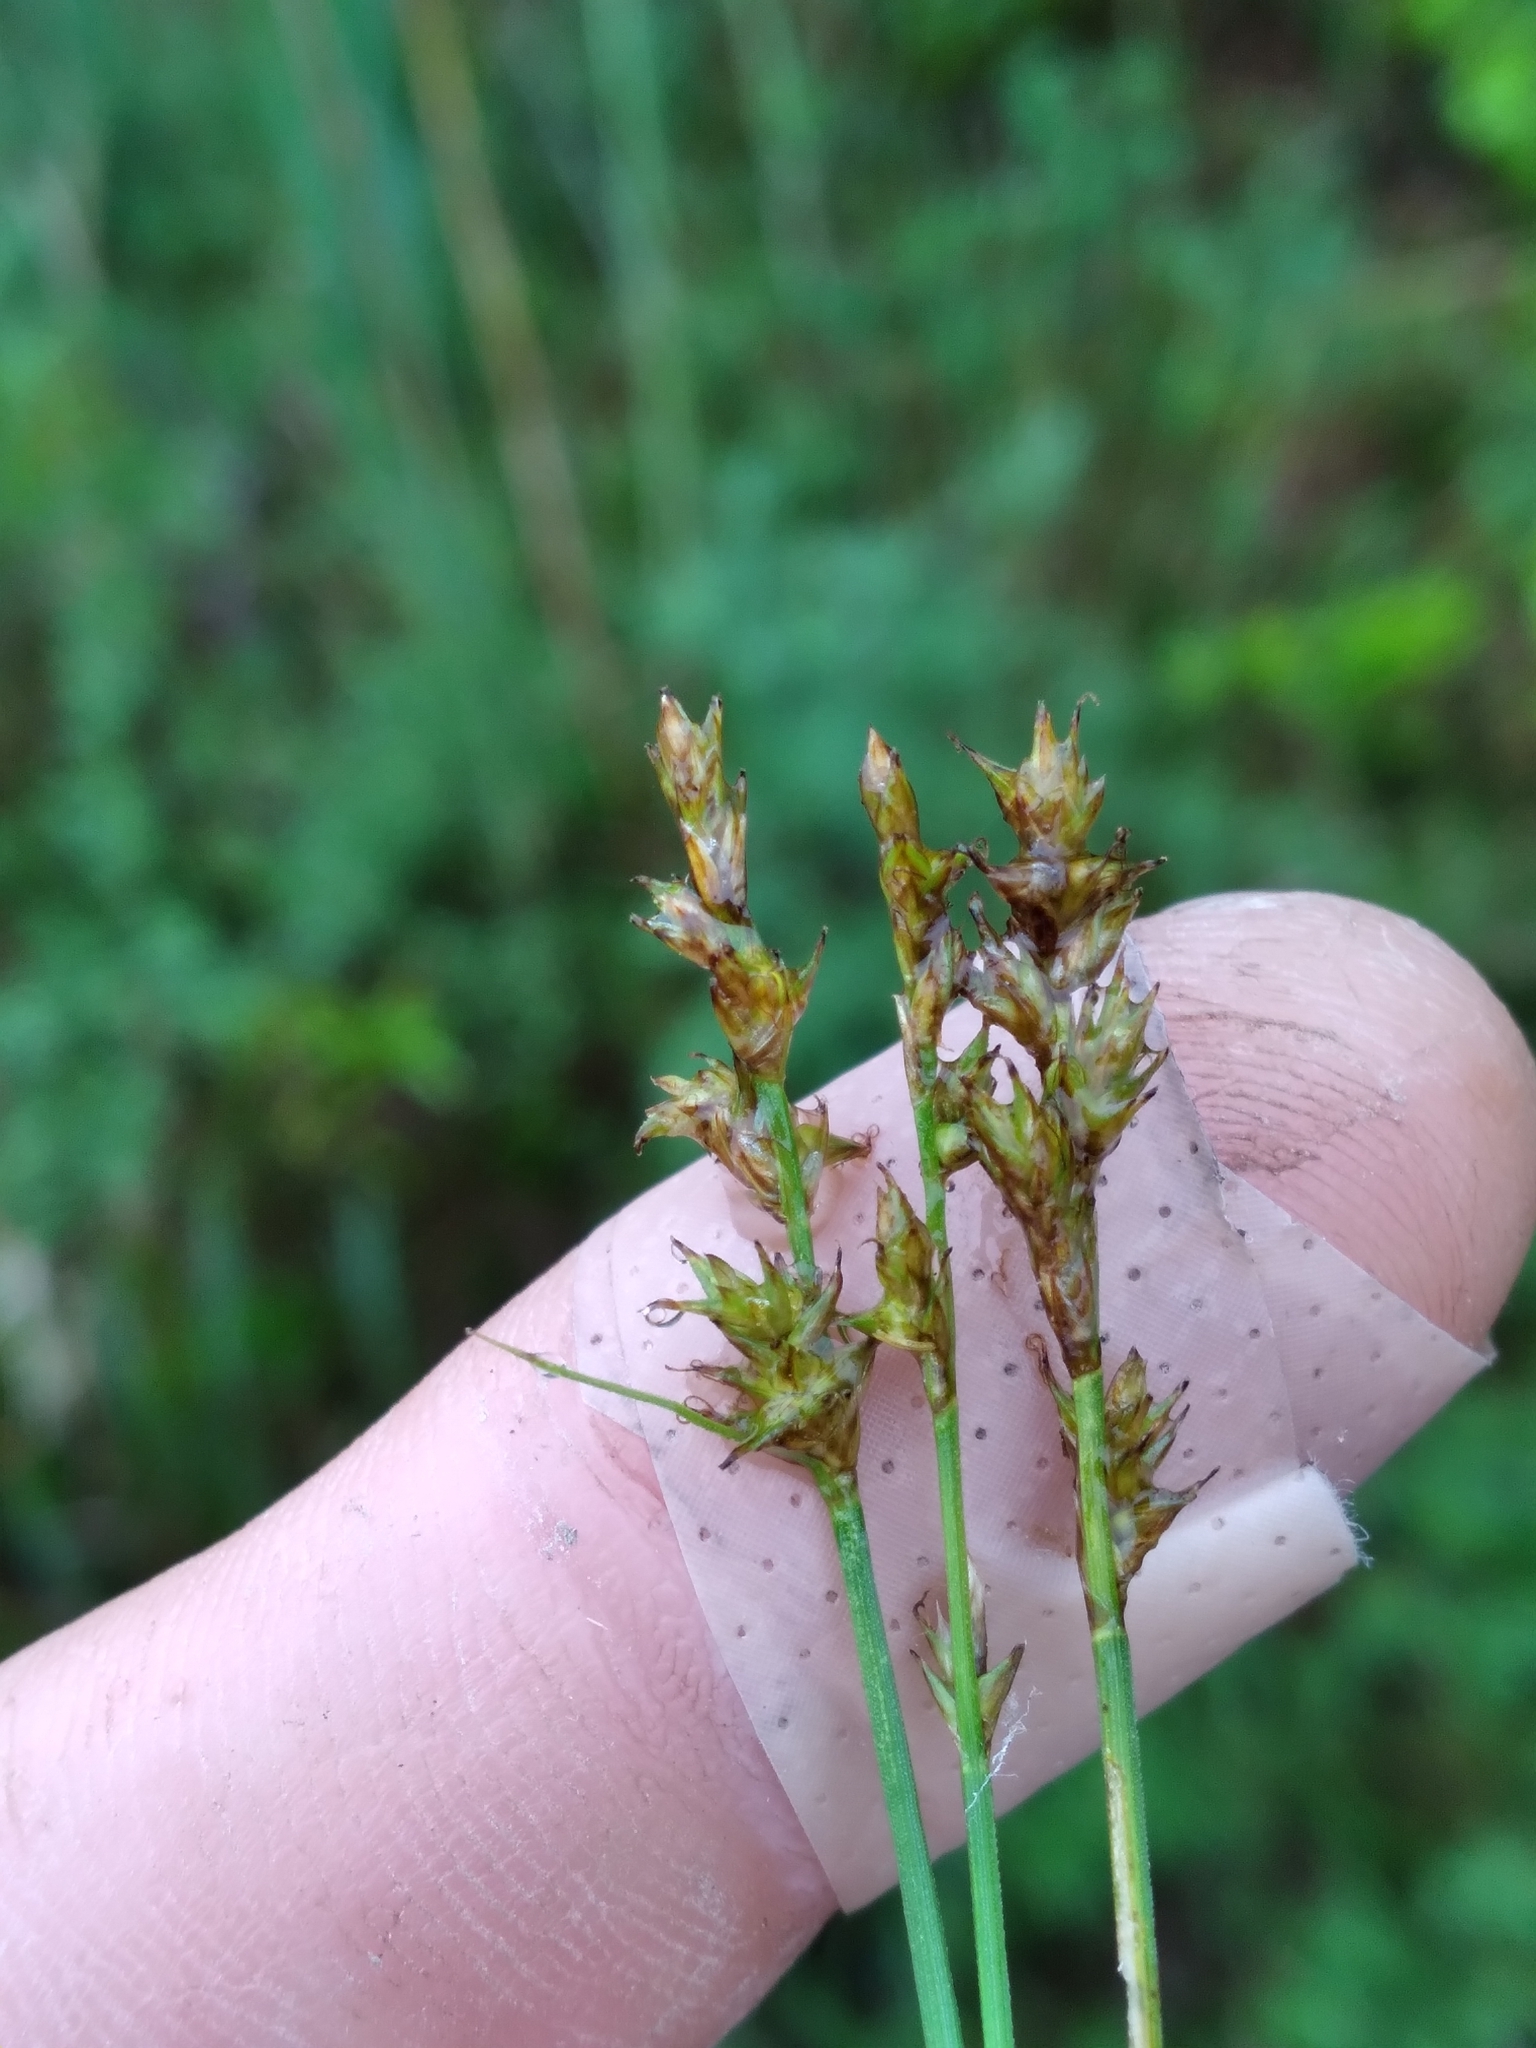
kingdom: Plantae
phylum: Tracheophyta
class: Liliopsida
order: Poales
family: Cyperaceae
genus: Carex
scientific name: Carex sterilis
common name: Dioecious sedge
